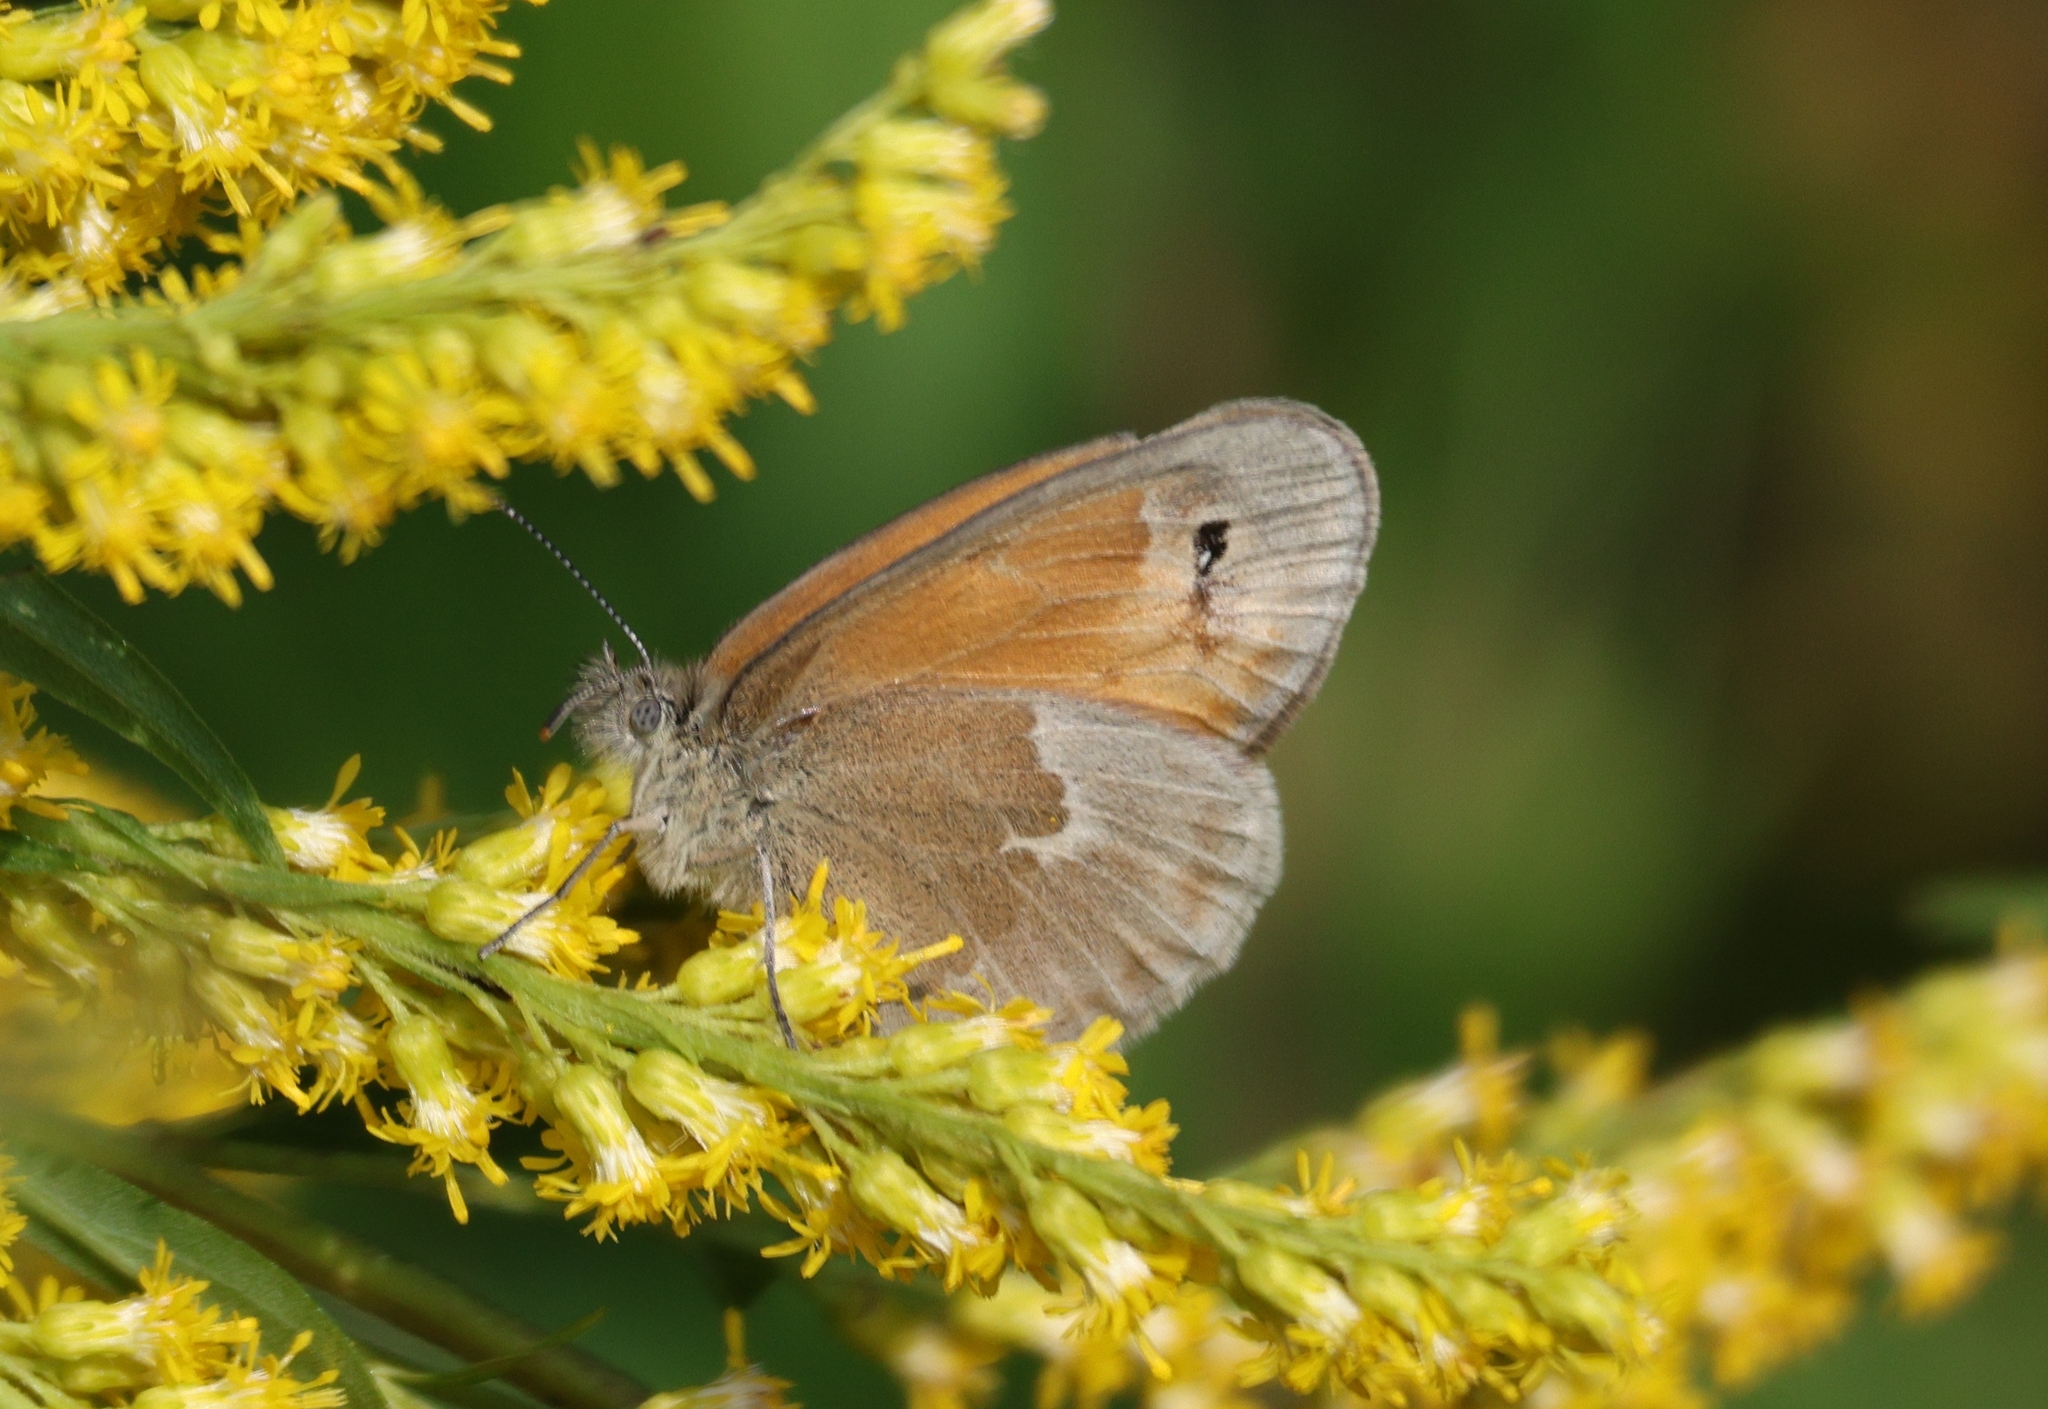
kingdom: Animalia
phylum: Arthropoda
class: Insecta
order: Lepidoptera
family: Nymphalidae
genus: Coenonympha
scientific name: Coenonympha california
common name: Common ringlet
